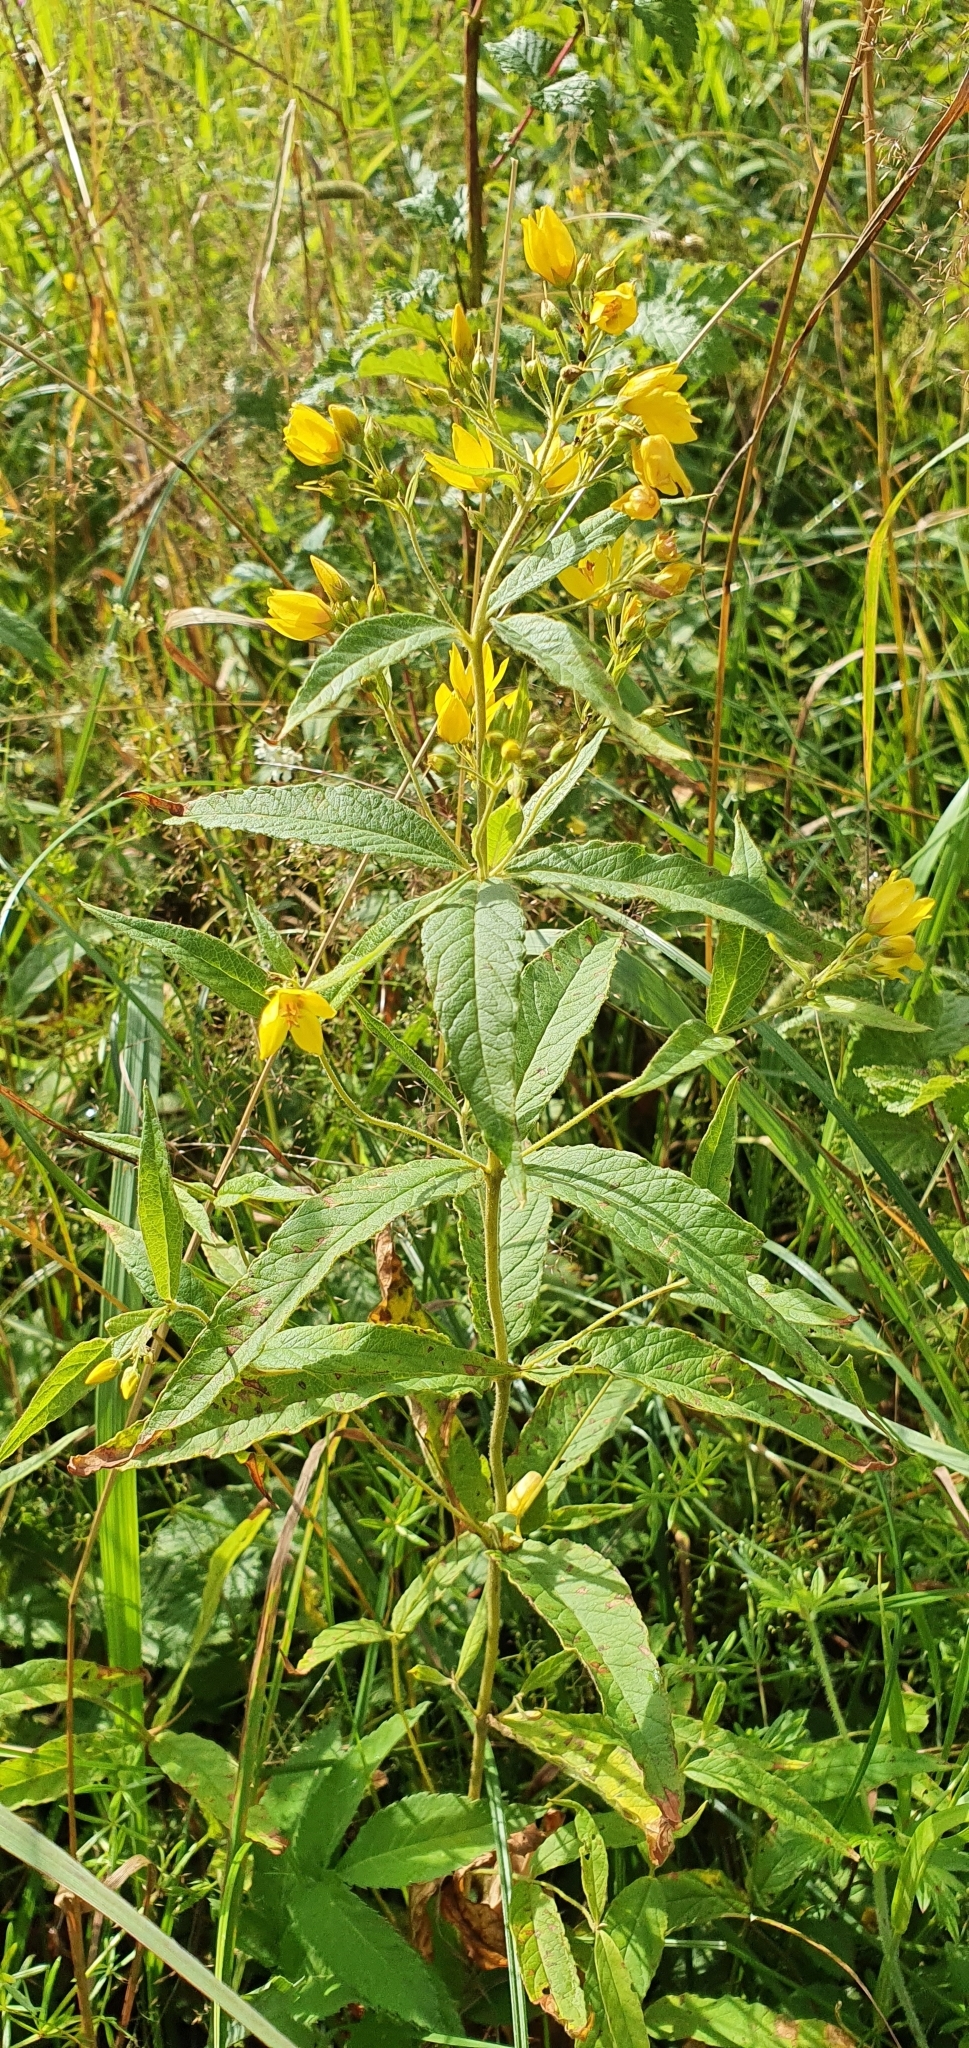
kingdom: Plantae
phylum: Tracheophyta
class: Magnoliopsida
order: Ericales
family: Primulaceae
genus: Lysimachia
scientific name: Lysimachia vulgaris
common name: Yellow loosestrife
